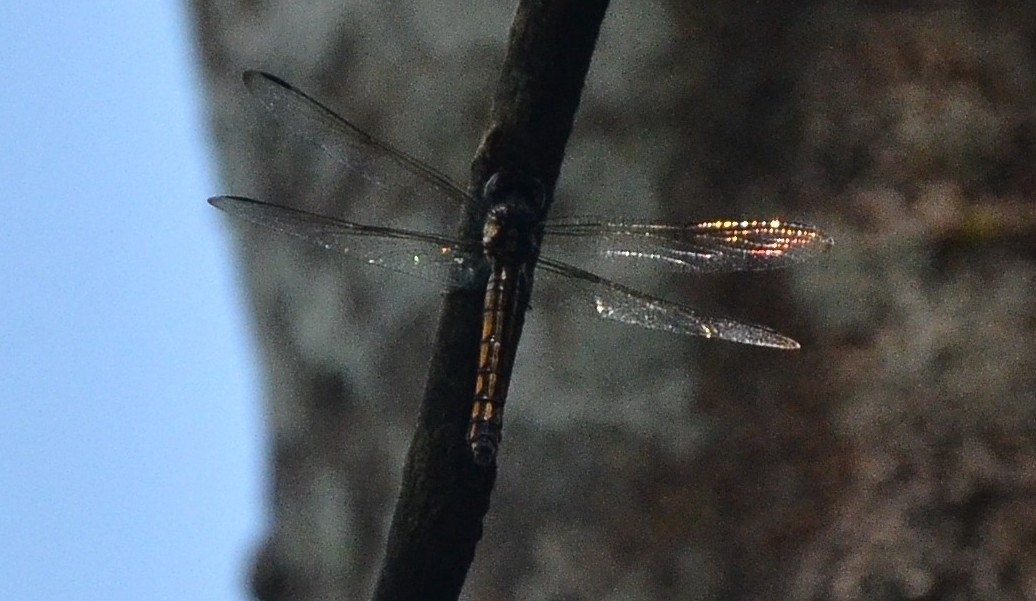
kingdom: Animalia
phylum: Arthropoda
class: Insecta
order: Odonata
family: Libellulidae
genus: Potamarcha
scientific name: Potamarcha congener
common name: Blue chaser
